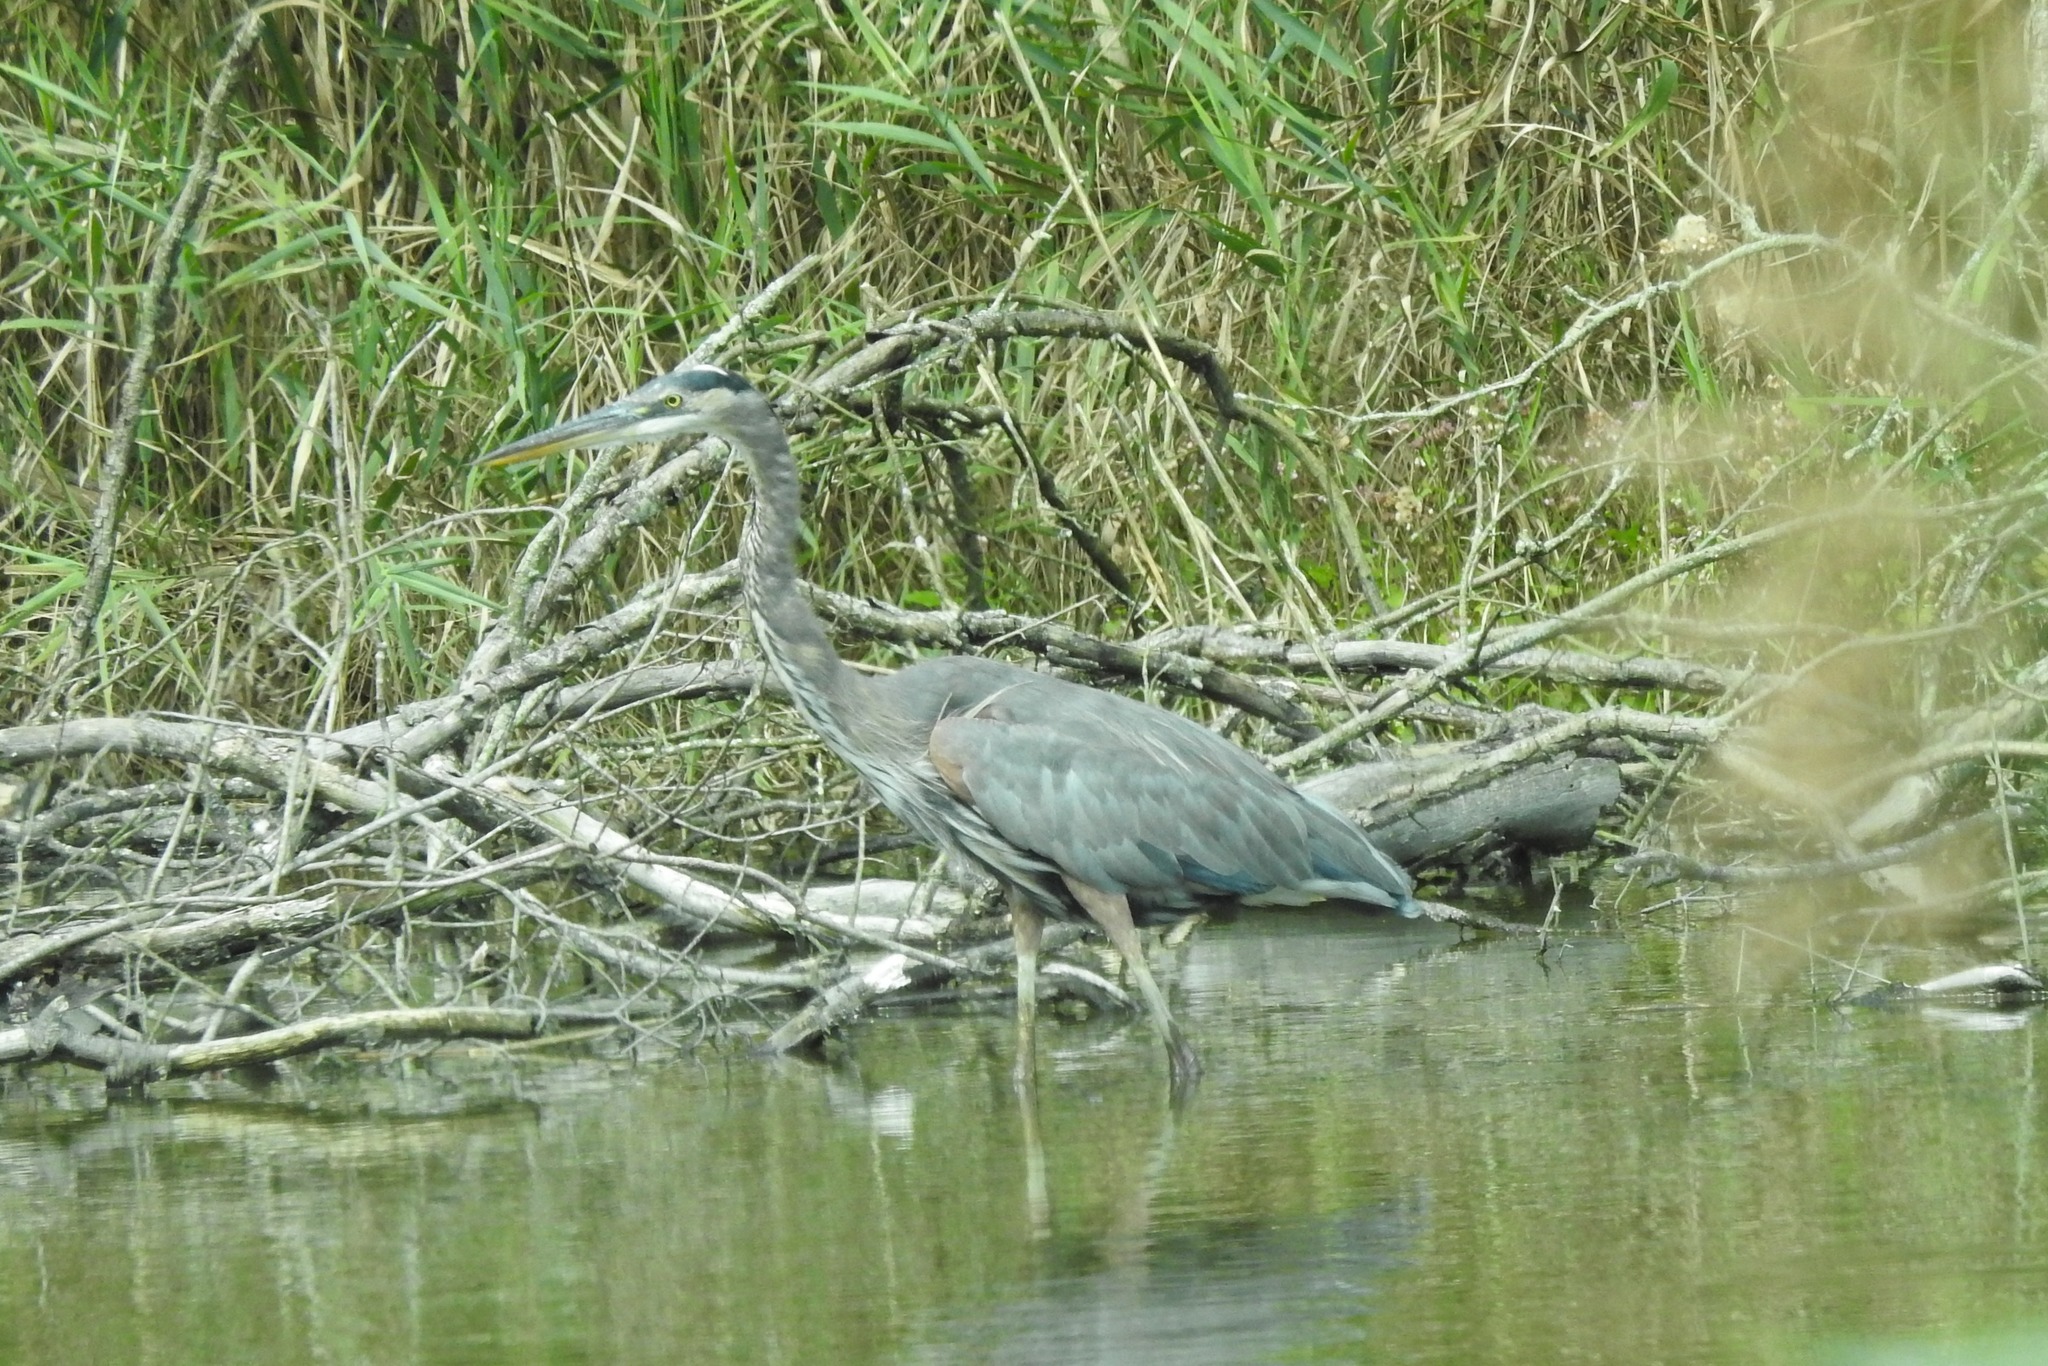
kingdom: Animalia
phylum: Chordata
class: Aves
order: Pelecaniformes
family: Ardeidae
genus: Ardea
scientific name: Ardea herodias
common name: Great blue heron
